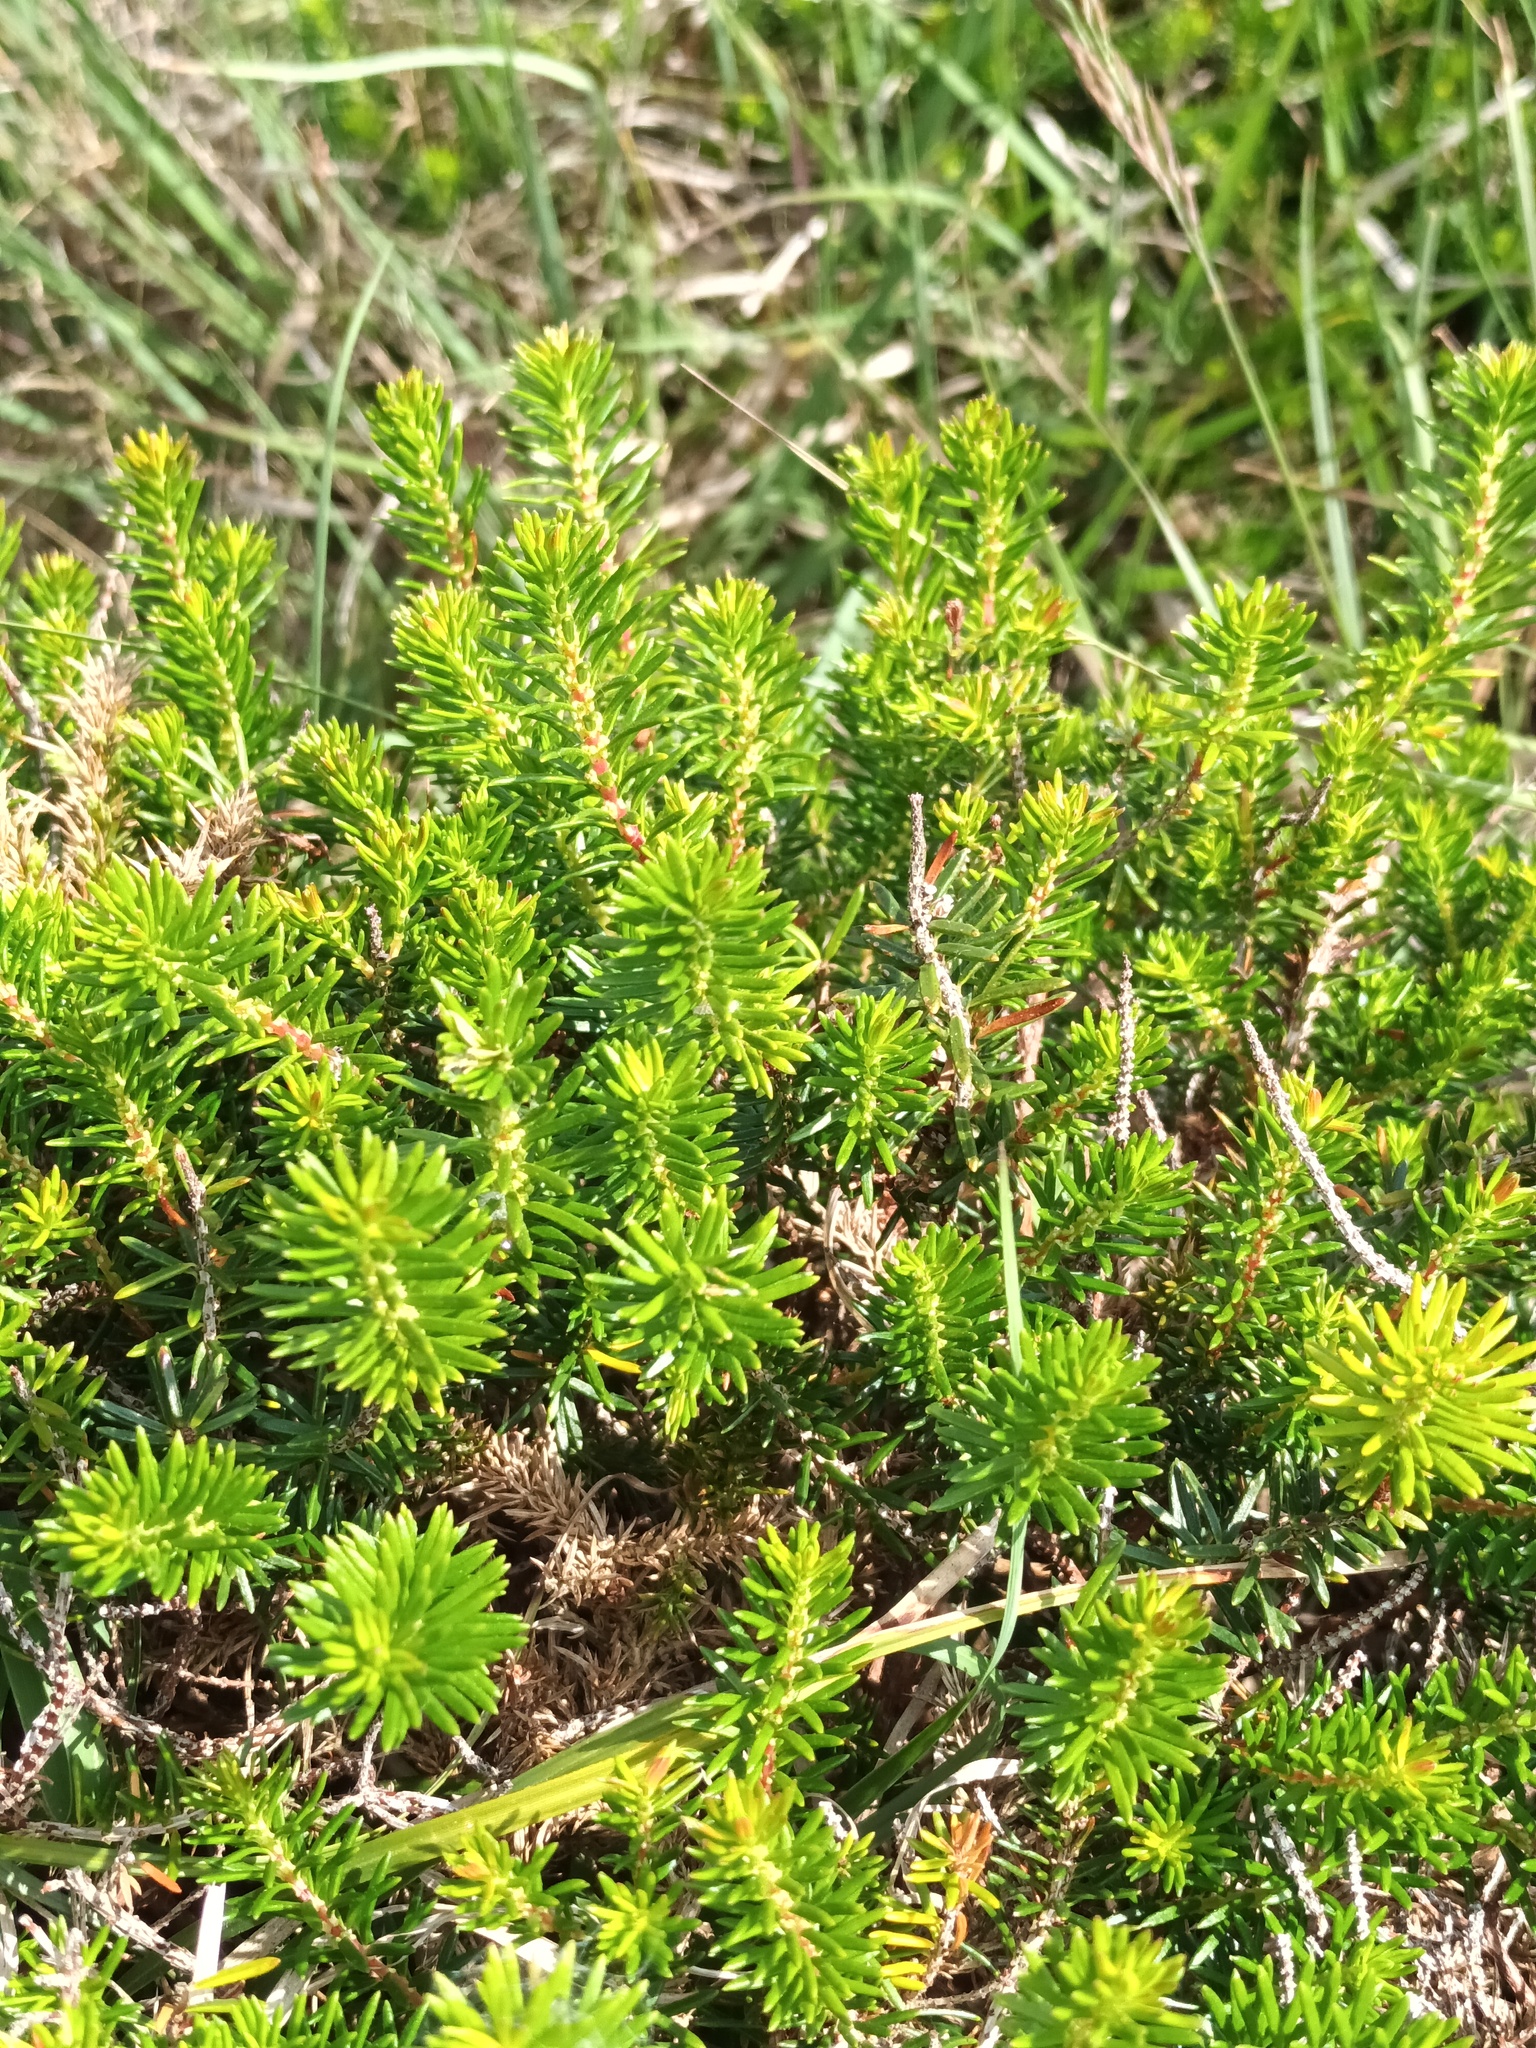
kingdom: Plantae
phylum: Tracheophyta
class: Magnoliopsida
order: Ericales
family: Ericaceae
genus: Erica
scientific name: Erica vagans
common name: Cornish heath
